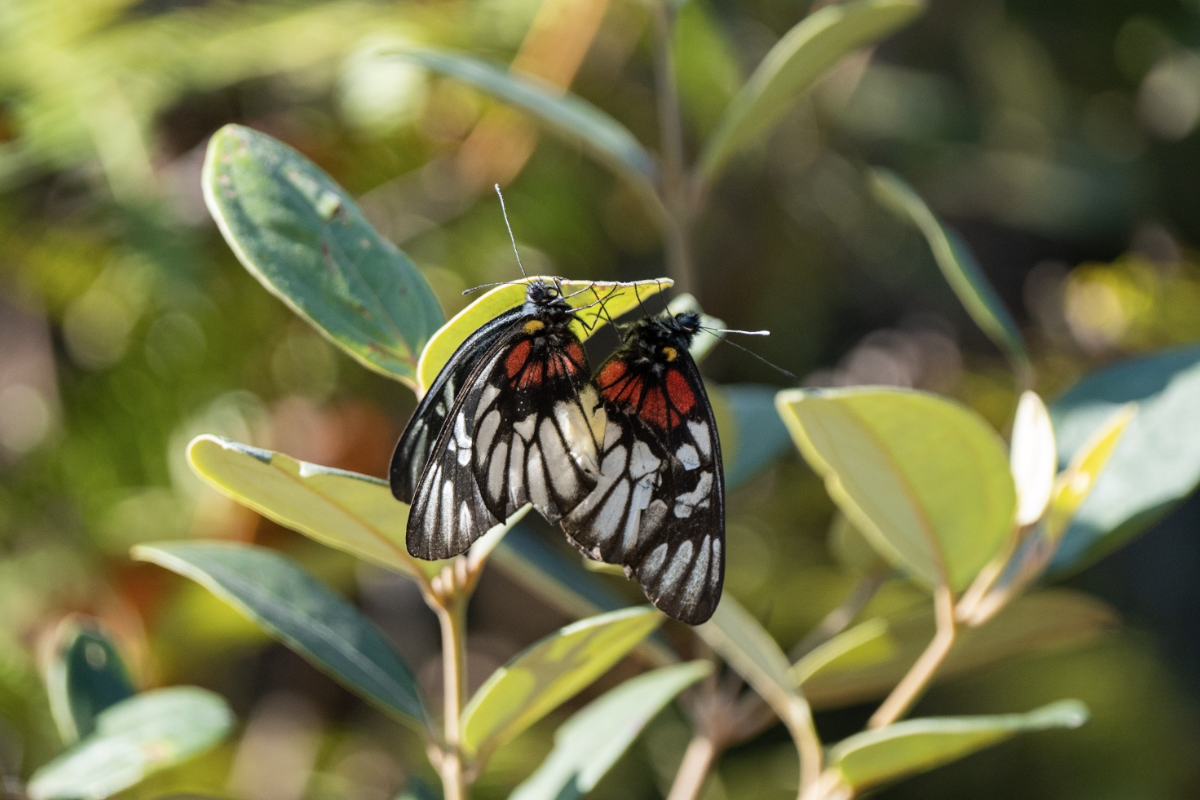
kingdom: Animalia
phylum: Arthropoda
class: Insecta
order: Lepidoptera
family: Pieridae
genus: Delias
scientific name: Delias acalis
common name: Red-breast jezebel
